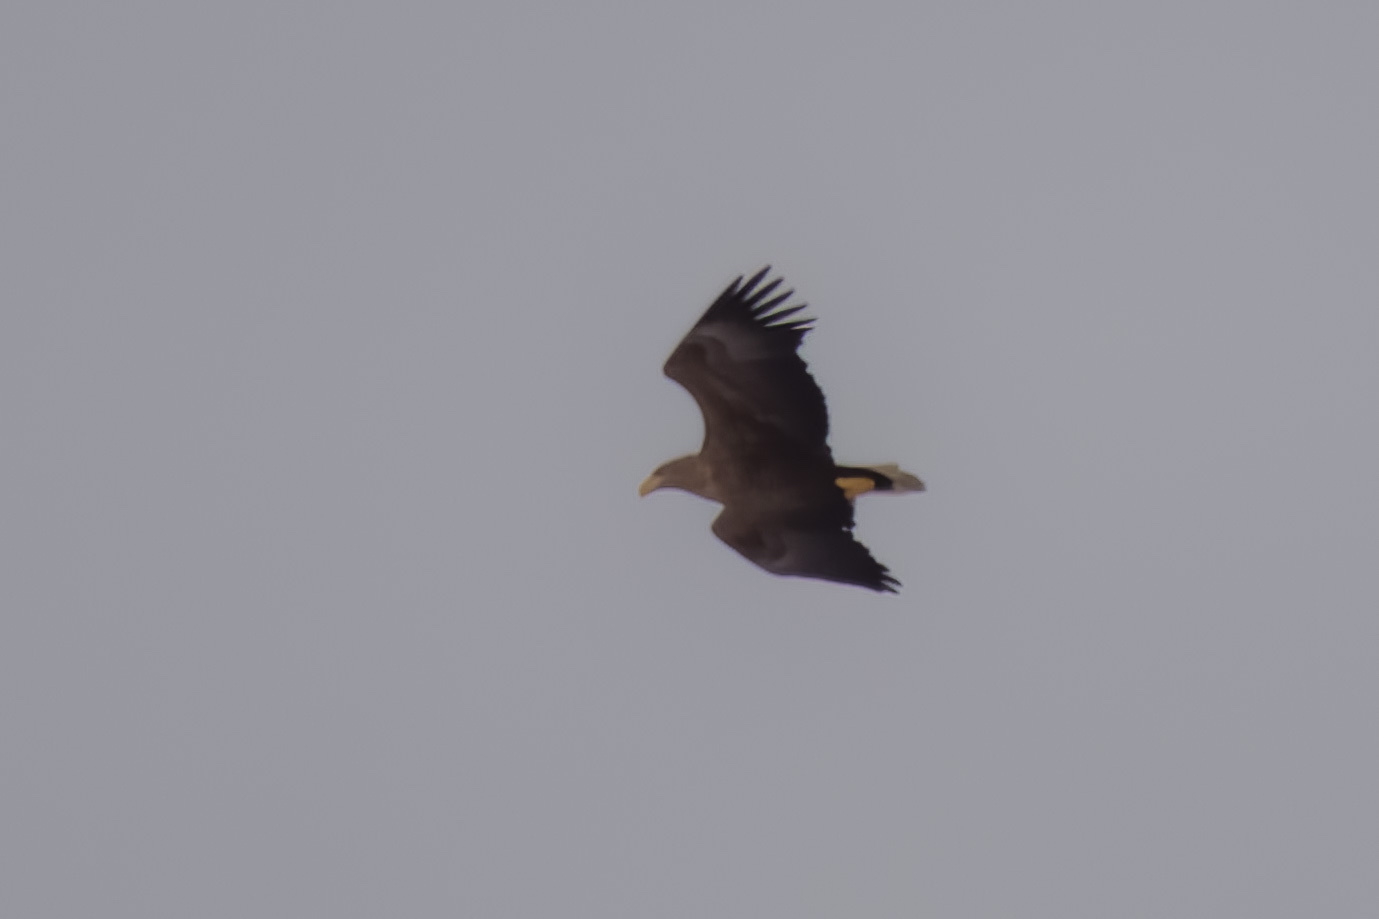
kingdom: Animalia
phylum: Chordata
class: Aves
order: Accipitriformes
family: Accipitridae
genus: Haliaeetus
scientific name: Haliaeetus albicilla
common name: White-tailed eagle
